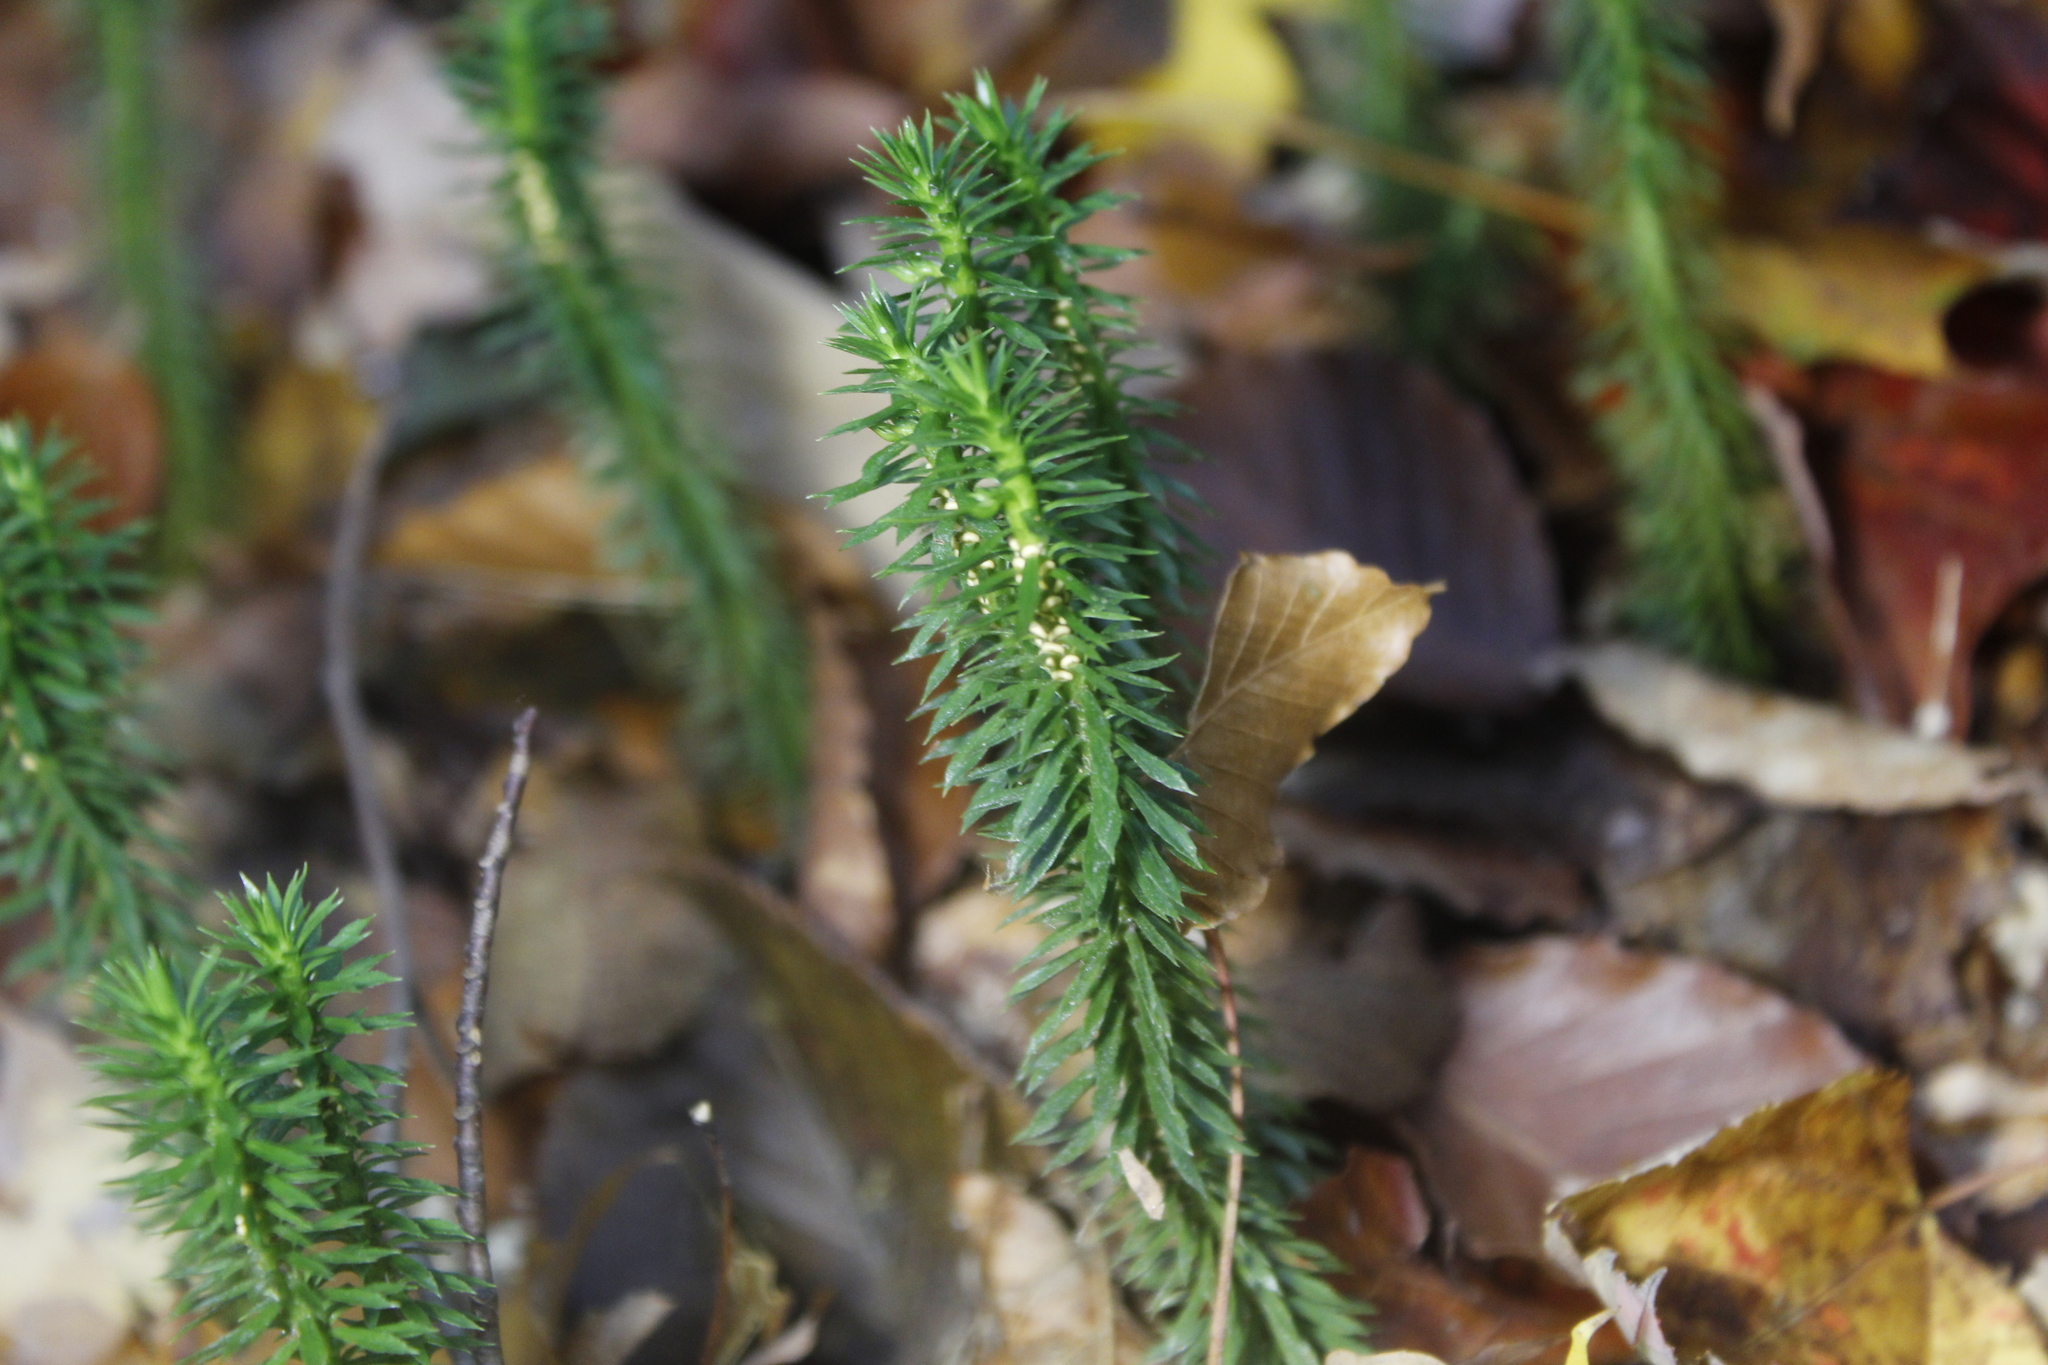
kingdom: Plantae
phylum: Tracheophyta
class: Lycopodiopsida
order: Lycopodiales
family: Lycopodiaceae
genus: Huperzia
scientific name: Huperzia lucidula
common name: Shining clubmoss
